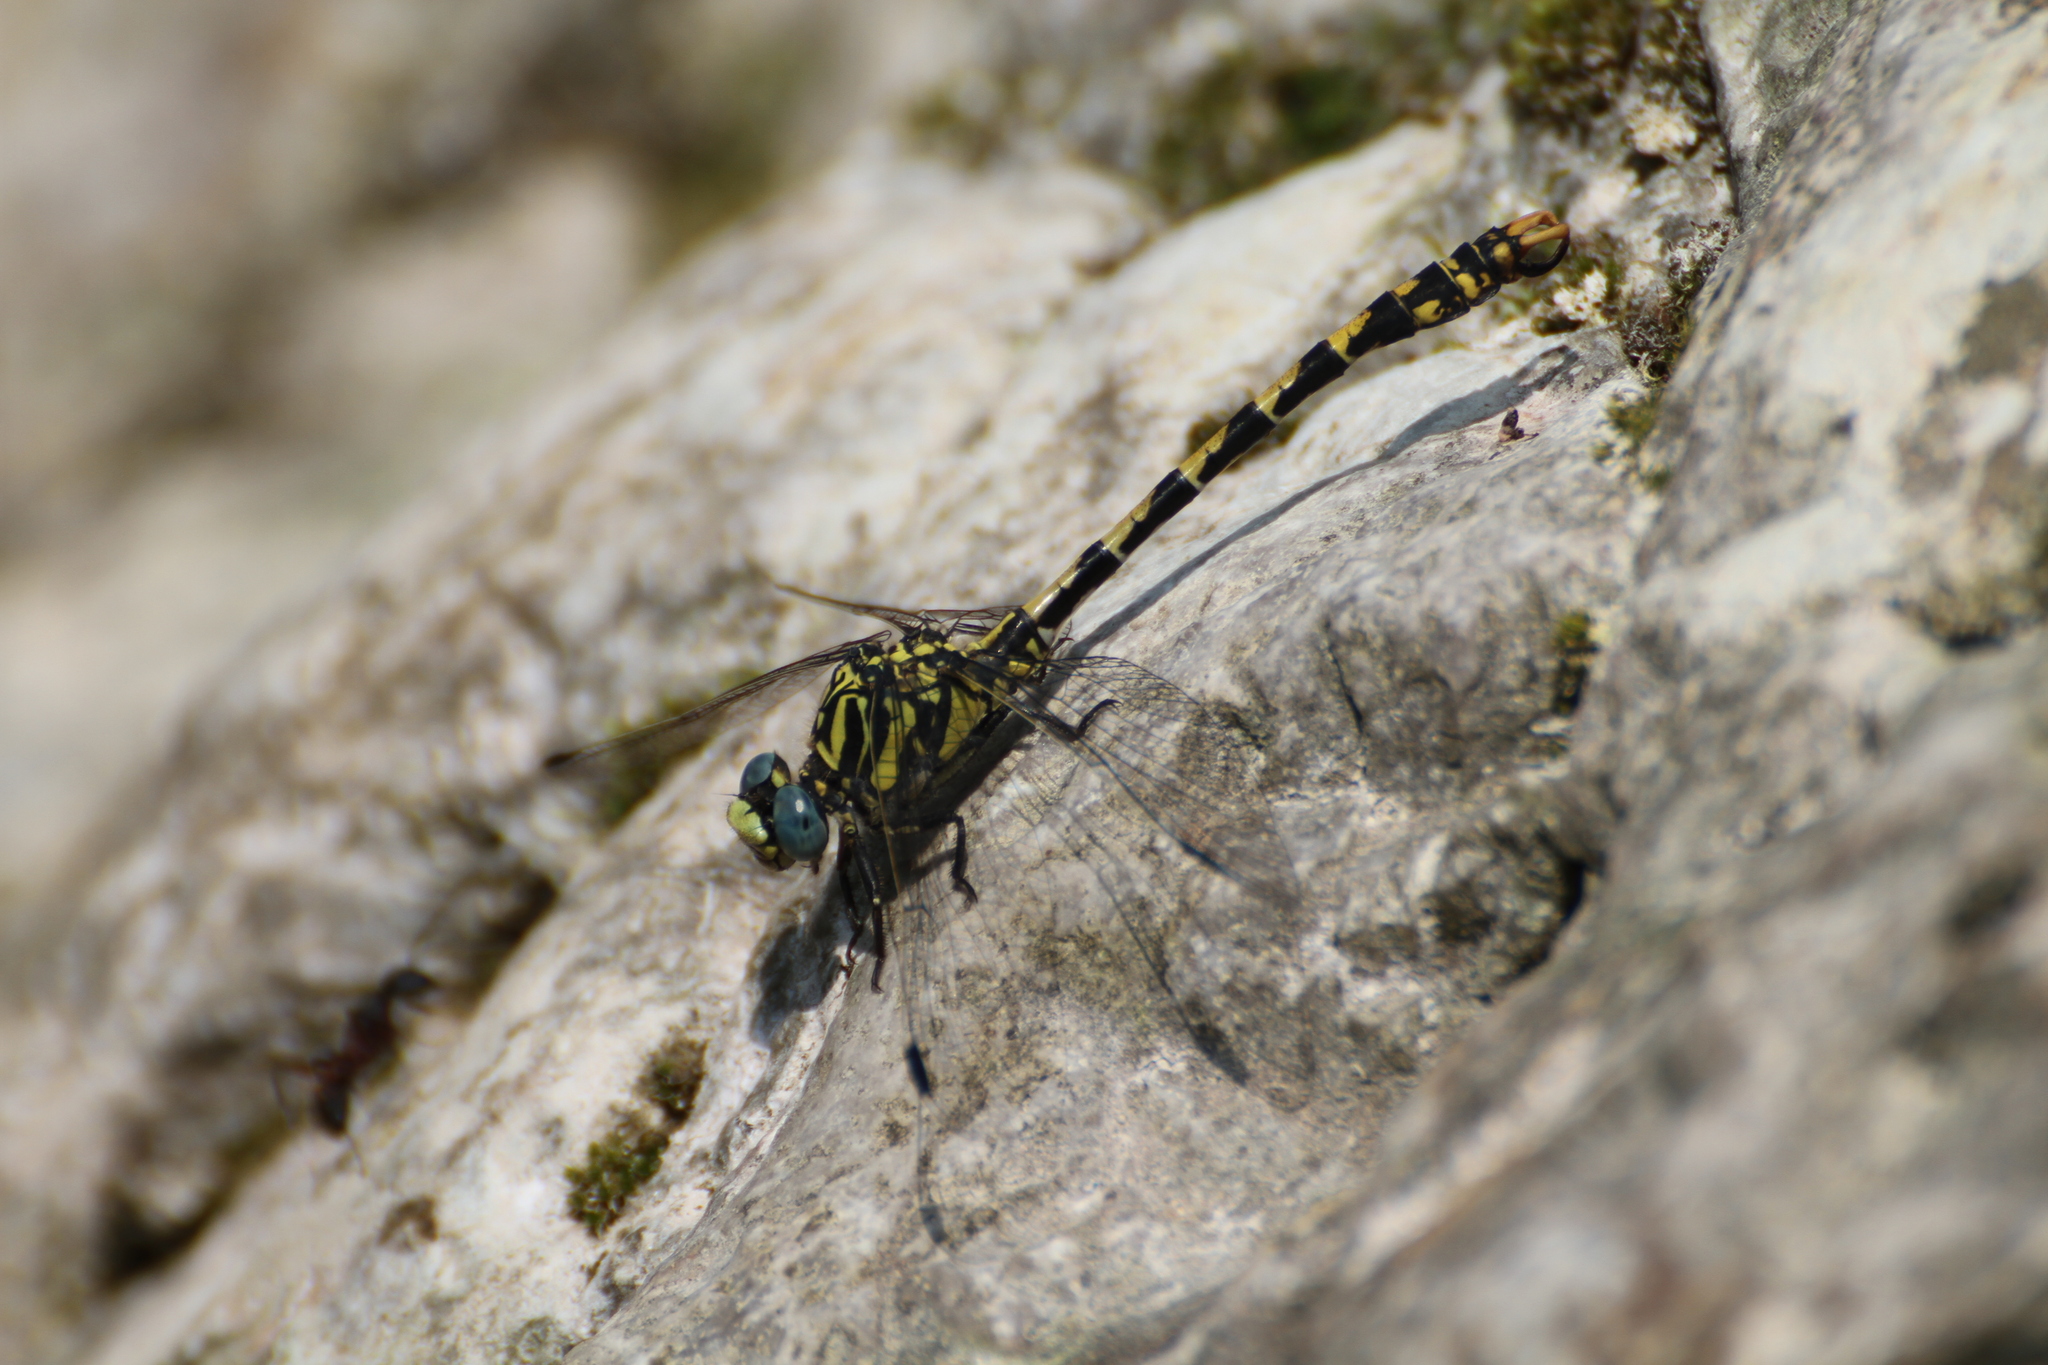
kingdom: Animalia
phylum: Arthropoda
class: Insecta
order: Odonata
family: Gomphidae
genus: Onychogomphus
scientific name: Onychogomphus uncatus
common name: Large pincertail
